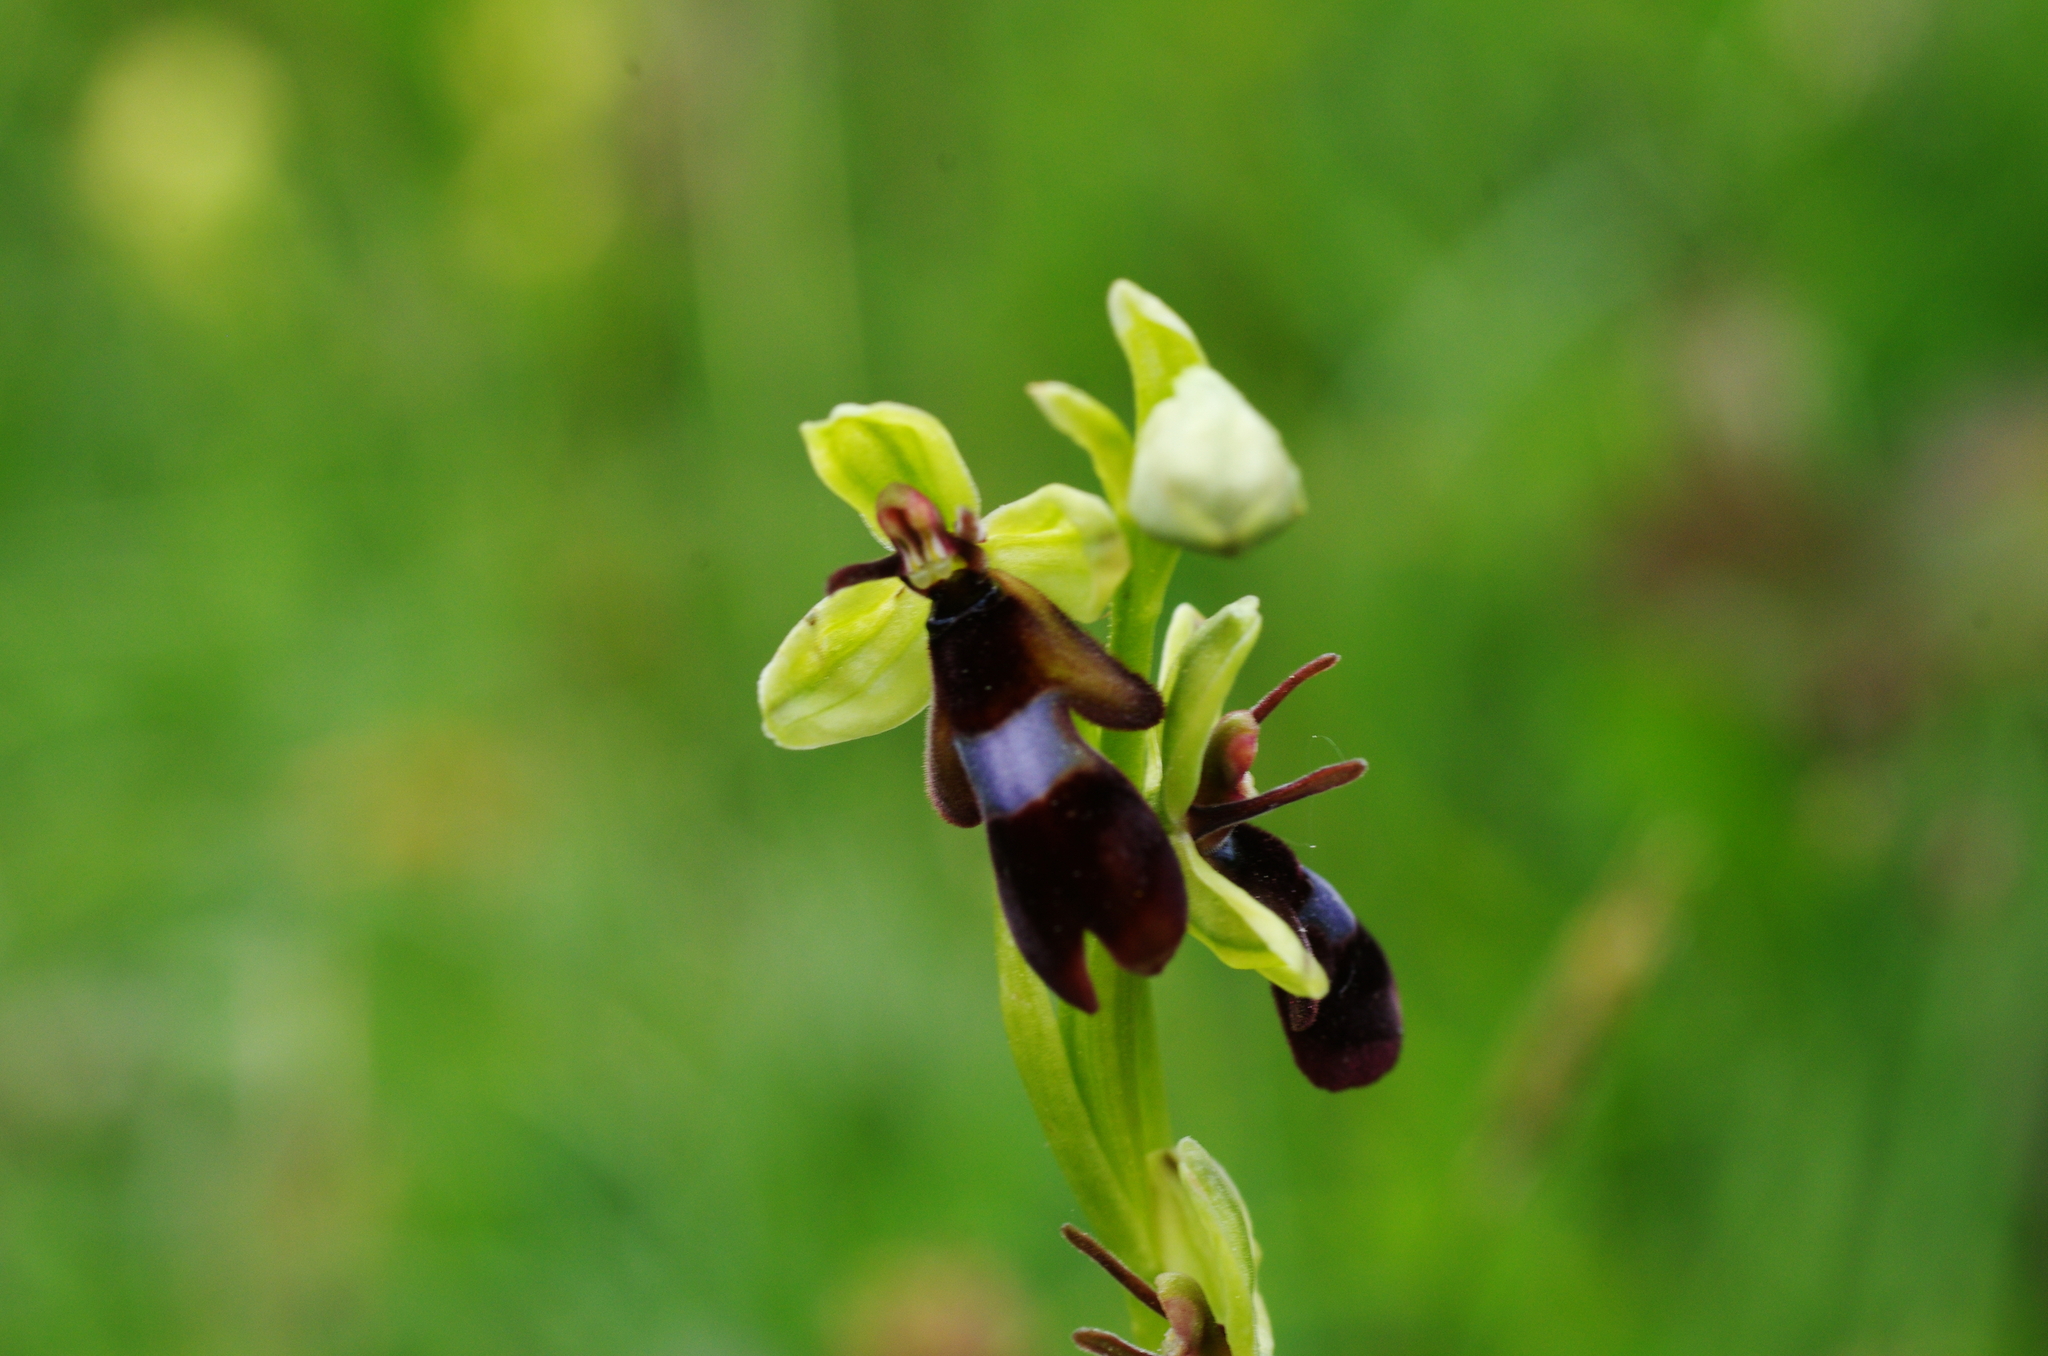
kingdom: Plantae
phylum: Tracheophyta
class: Liliopsida
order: Asparagales
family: Orchidaceae
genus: Ophrys
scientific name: Ophrys insectifera
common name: Fly orchid
